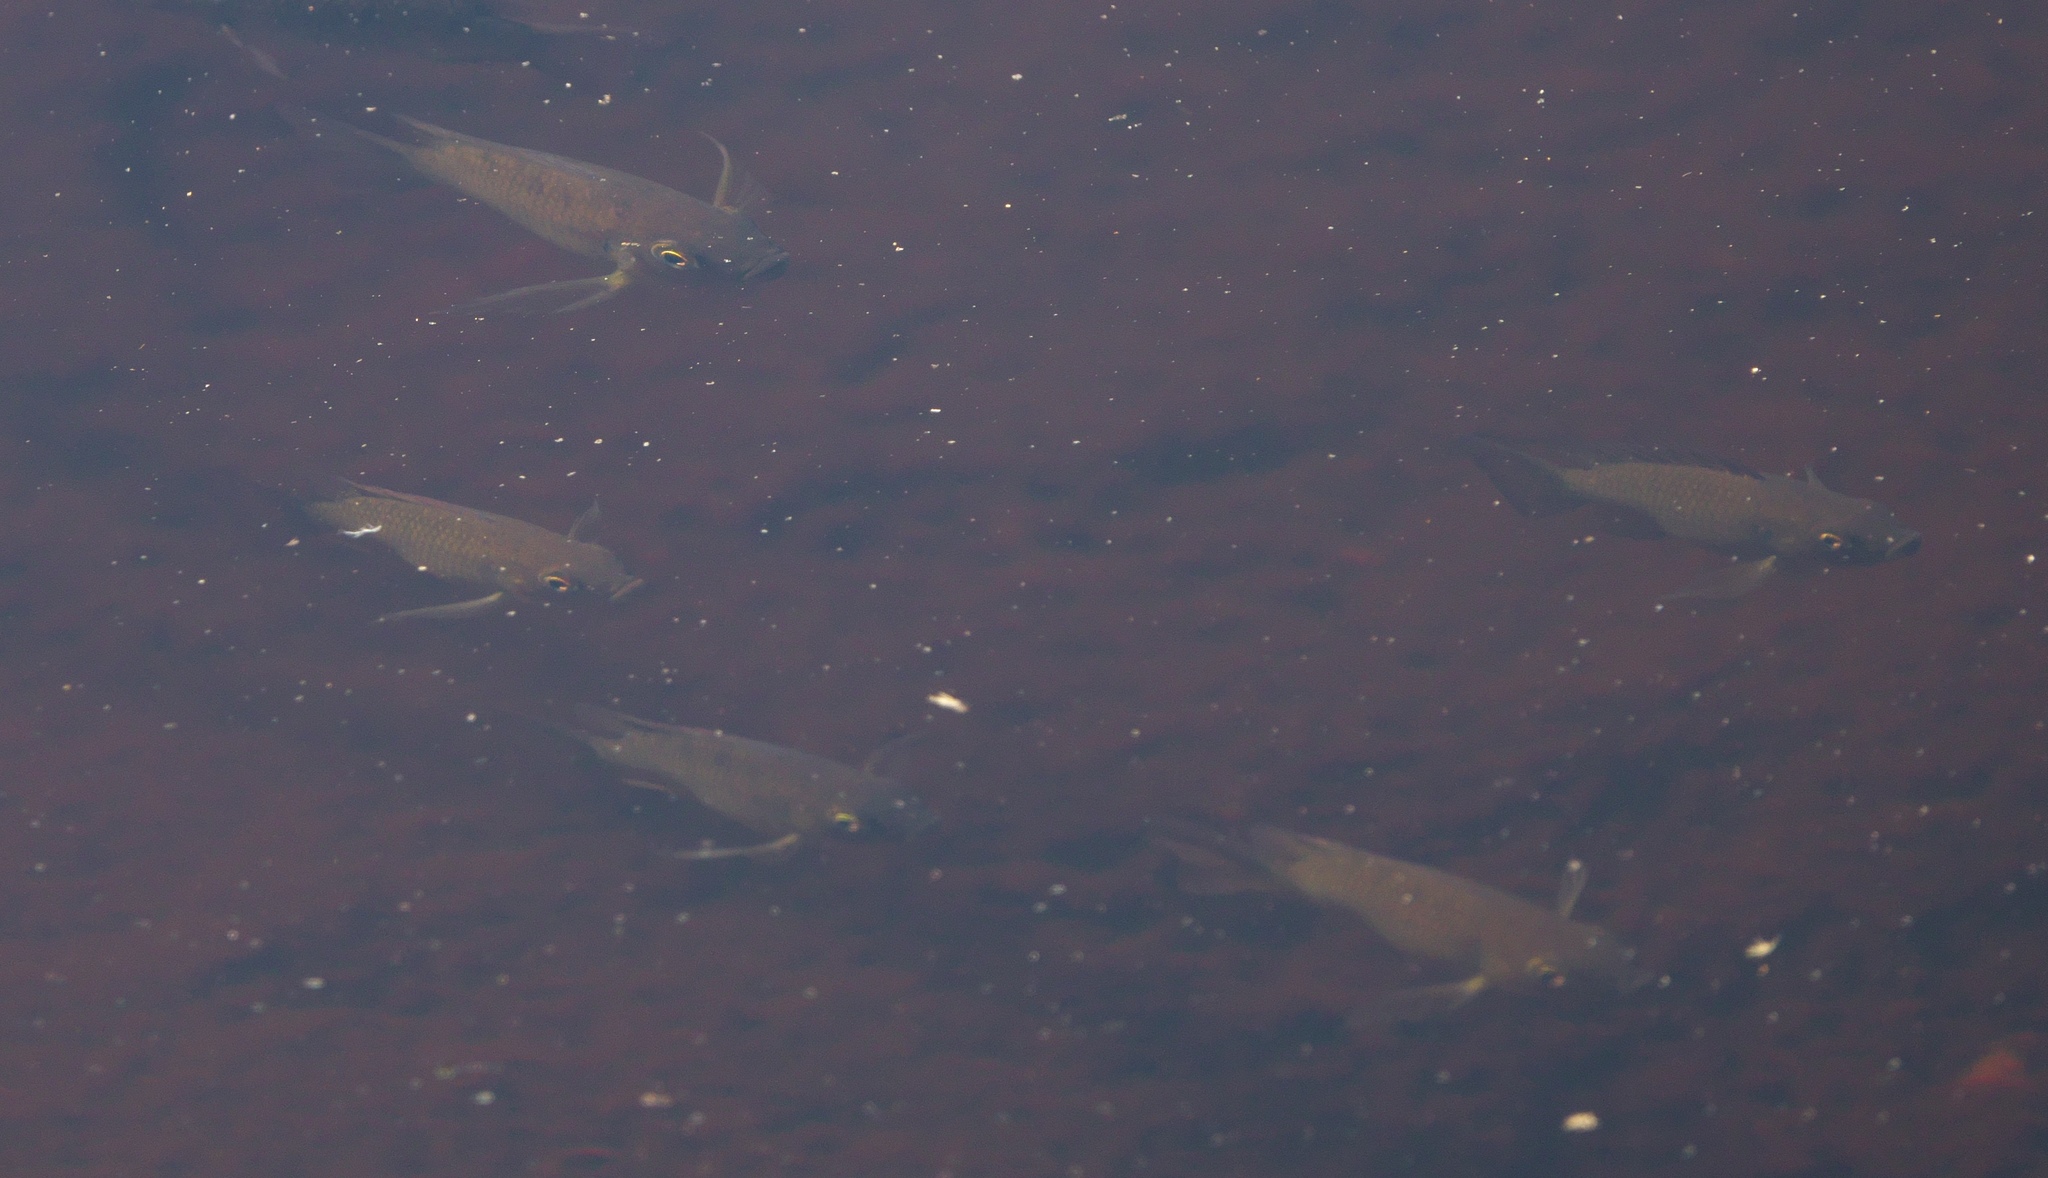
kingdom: Animalia
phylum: Chordata
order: Perciformes
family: Cichlidae
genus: Sarotherodon
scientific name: Sarotherodon melanotheron
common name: Blackchin tilapia
